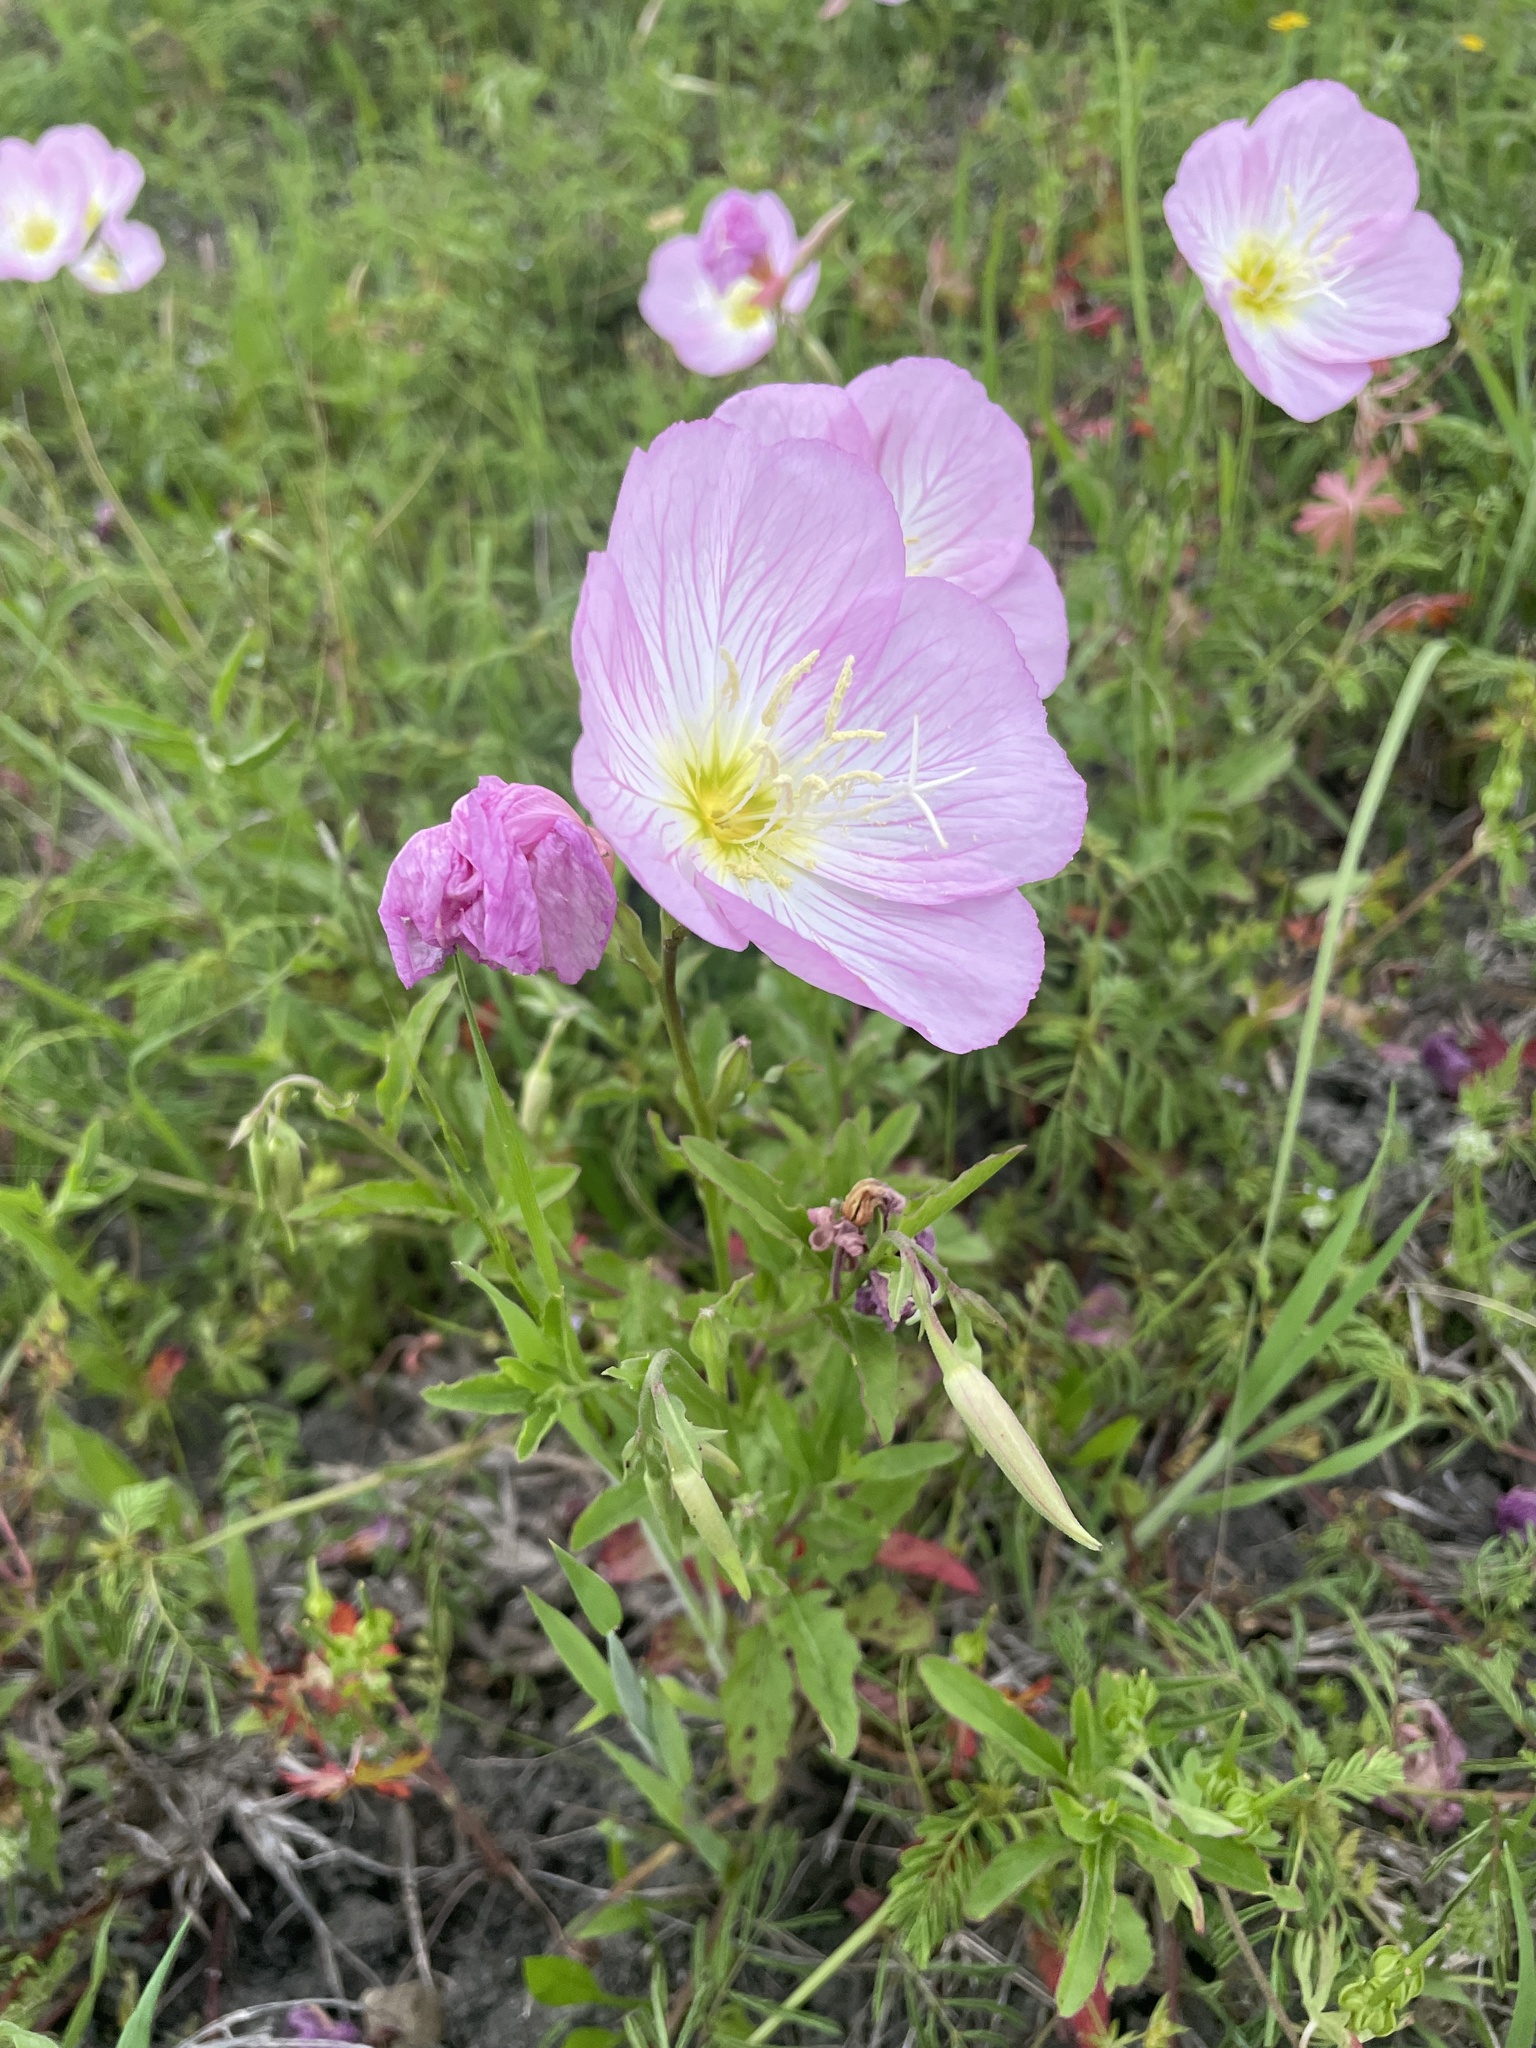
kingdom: Plantae
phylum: Tracheophyta
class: Magnoliopsida
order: Myrtales
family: Onagraceae
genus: Oenothera
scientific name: Oenothera speciosa
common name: White evening-primrose
